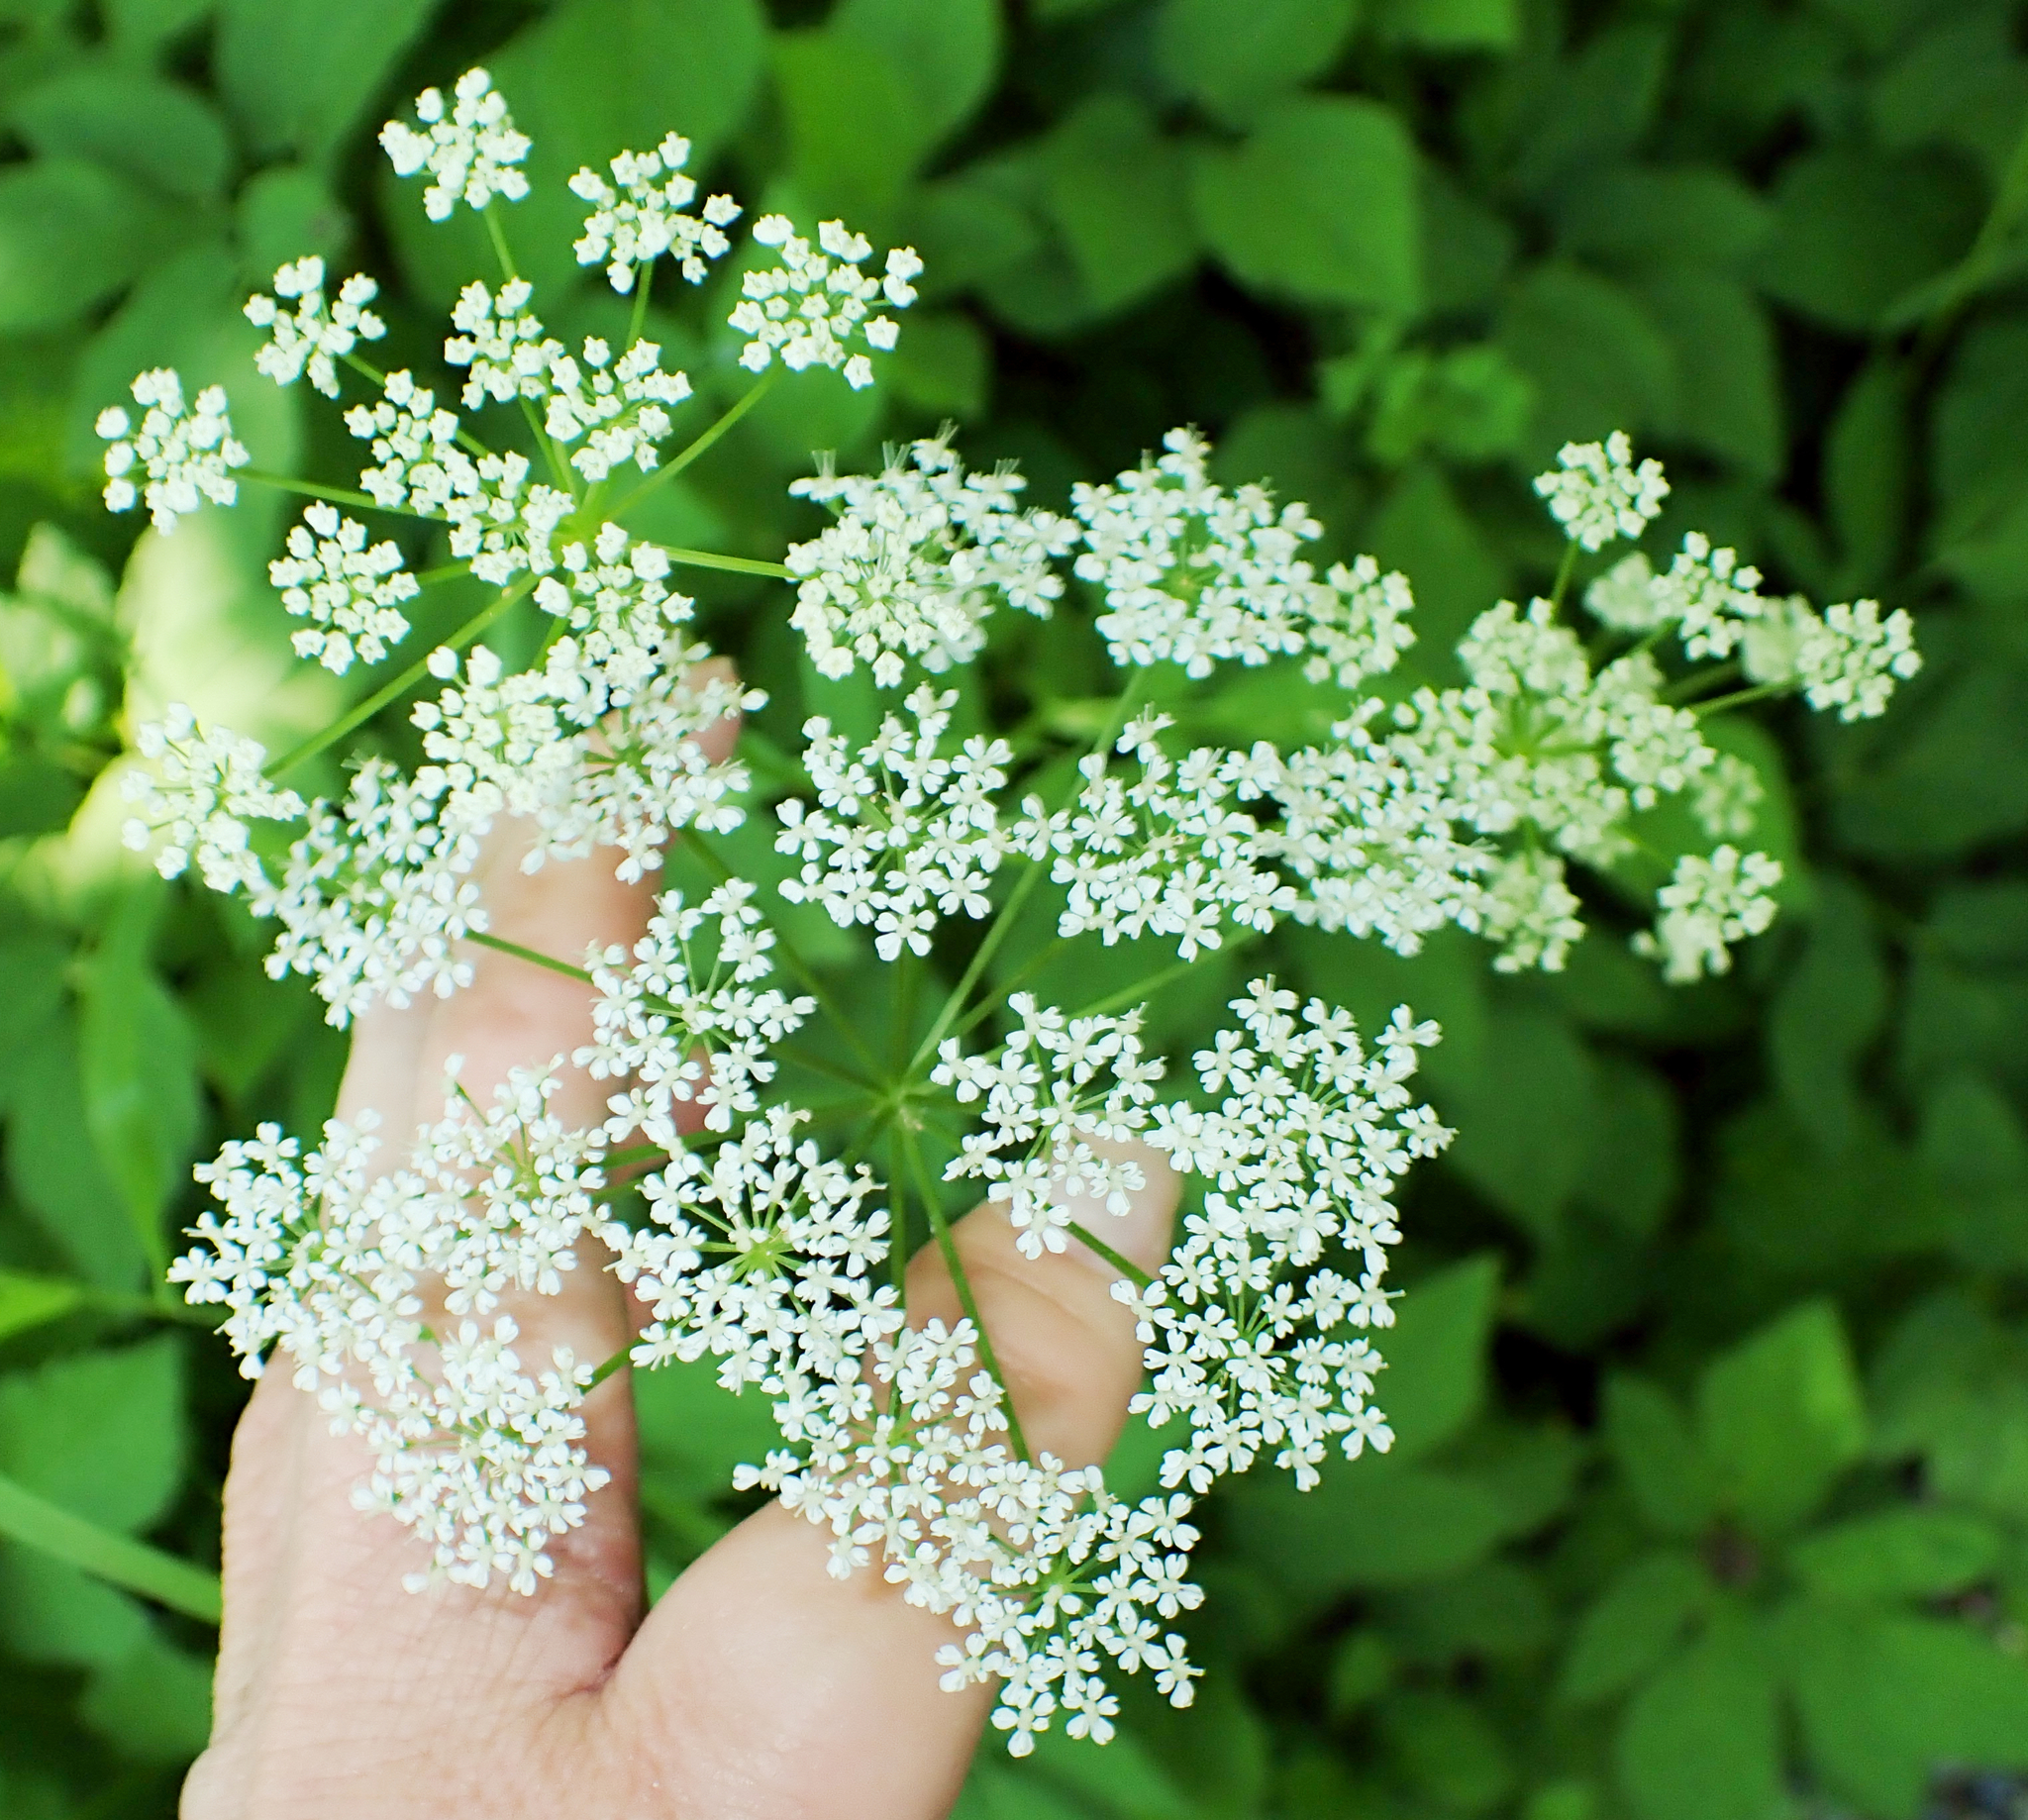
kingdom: Plantae
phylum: Tracheophyta
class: Magnoliopsida
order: Apiales
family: Apiaceae
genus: Aegopodium
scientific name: Aegopodium podagraria
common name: Ground-elder
